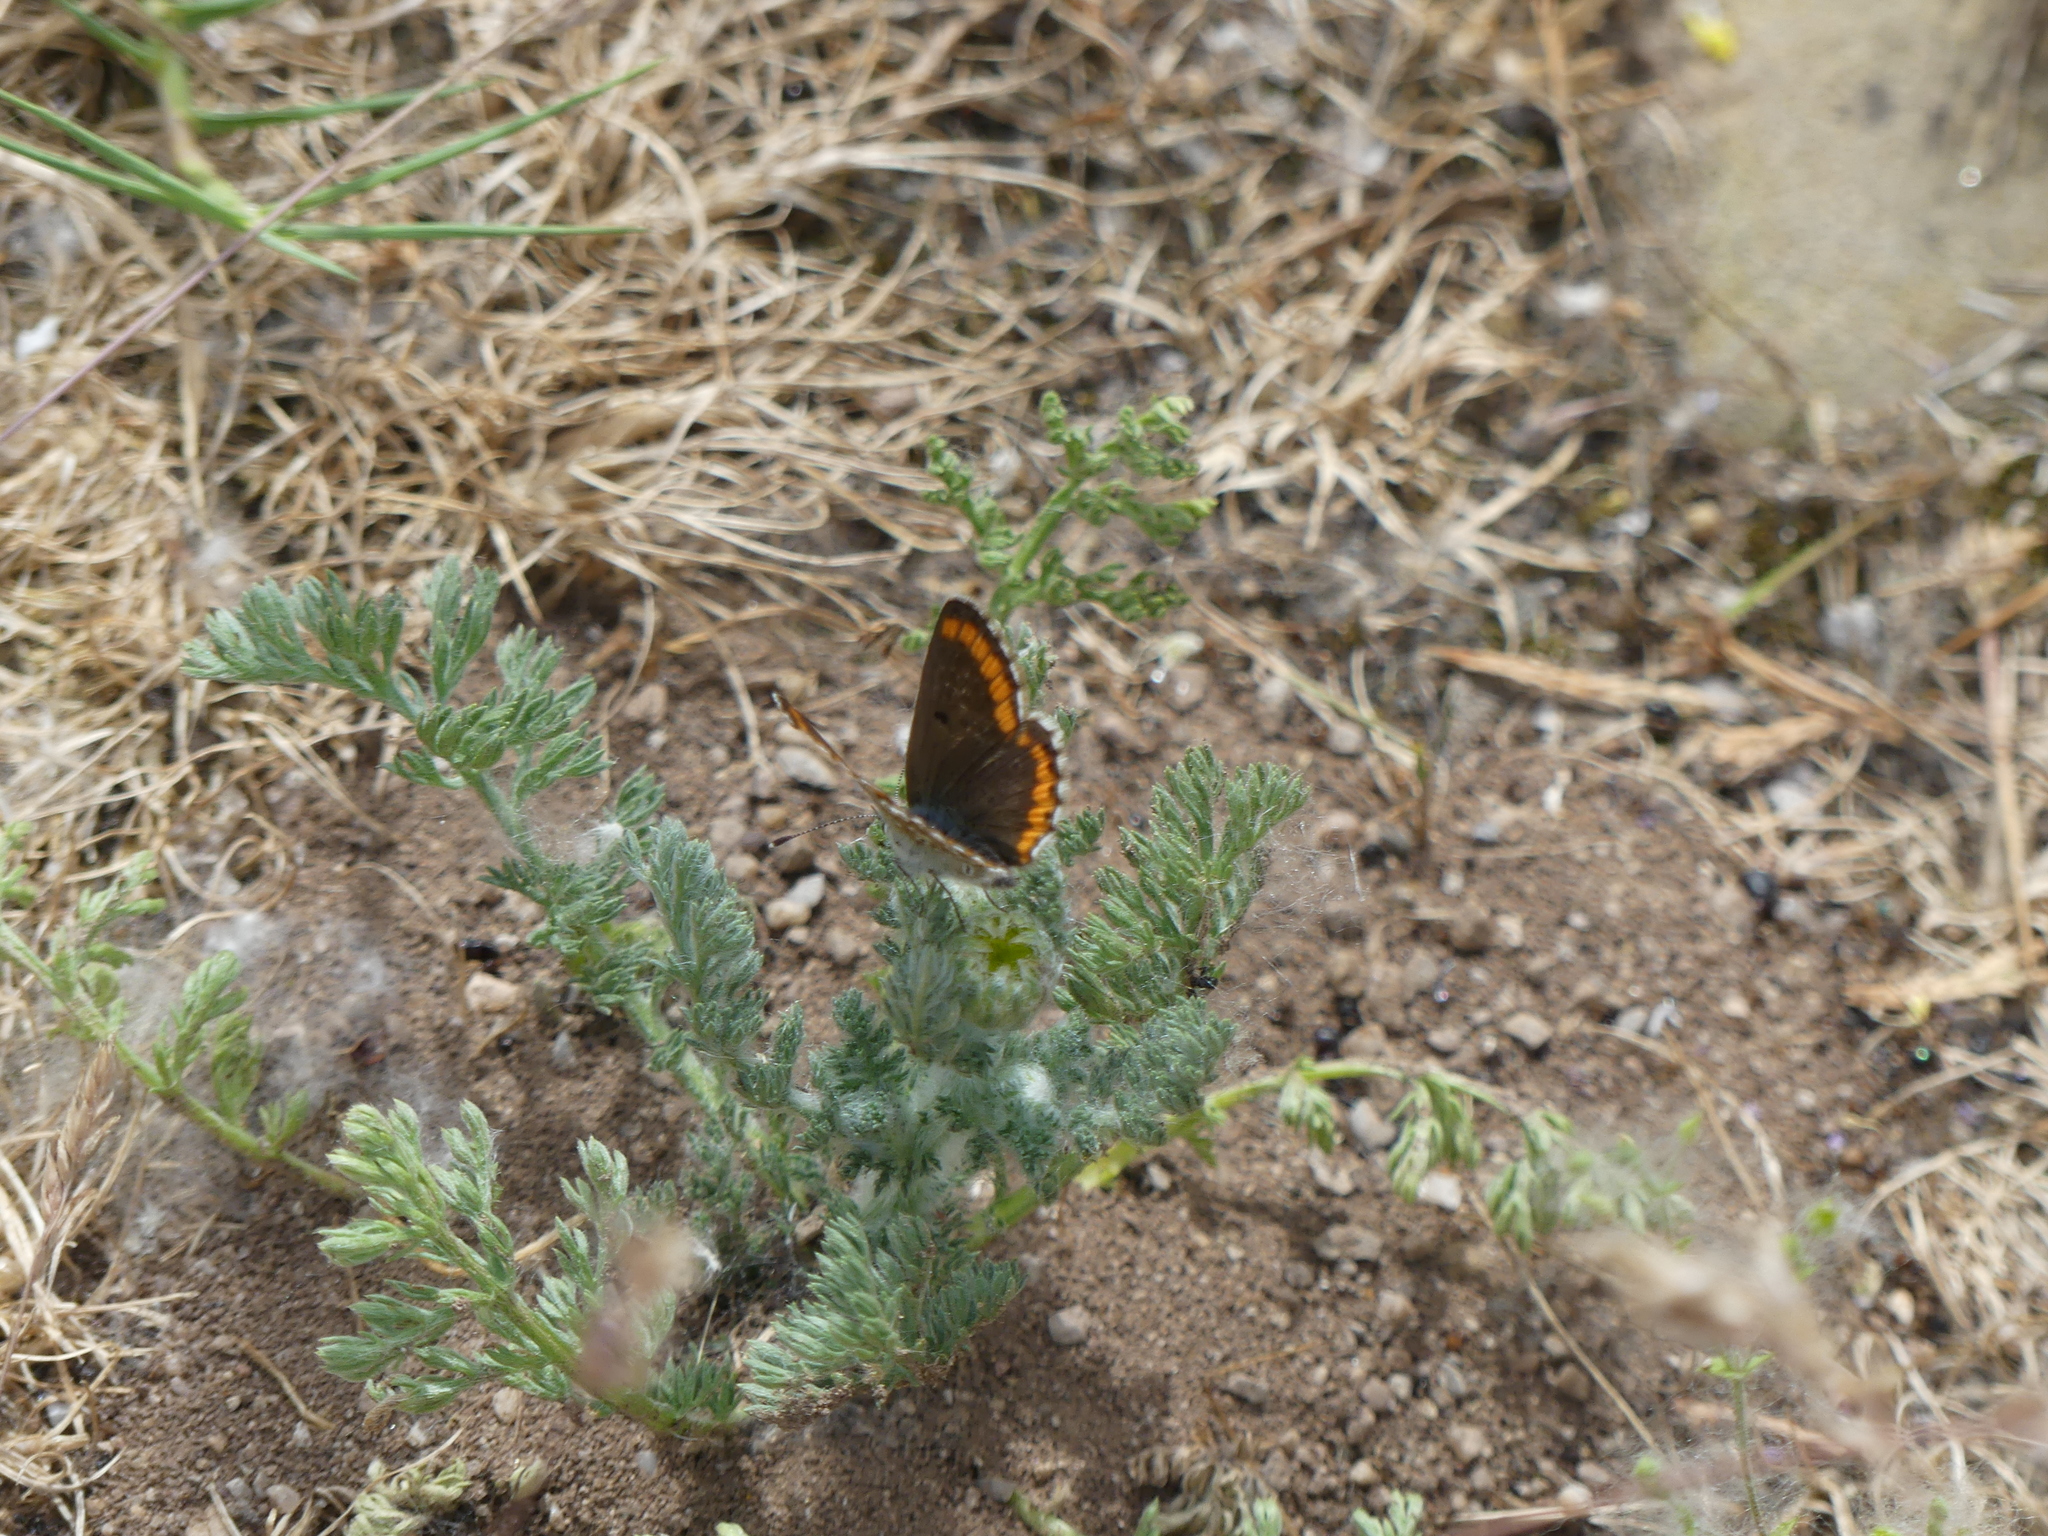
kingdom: Animalia
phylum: Arthropoda
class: Insecta
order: Lepidoptera
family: Lycaenidae
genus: Aricia
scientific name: Aricia cramera
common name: Eschscholtz´s brown  argus
